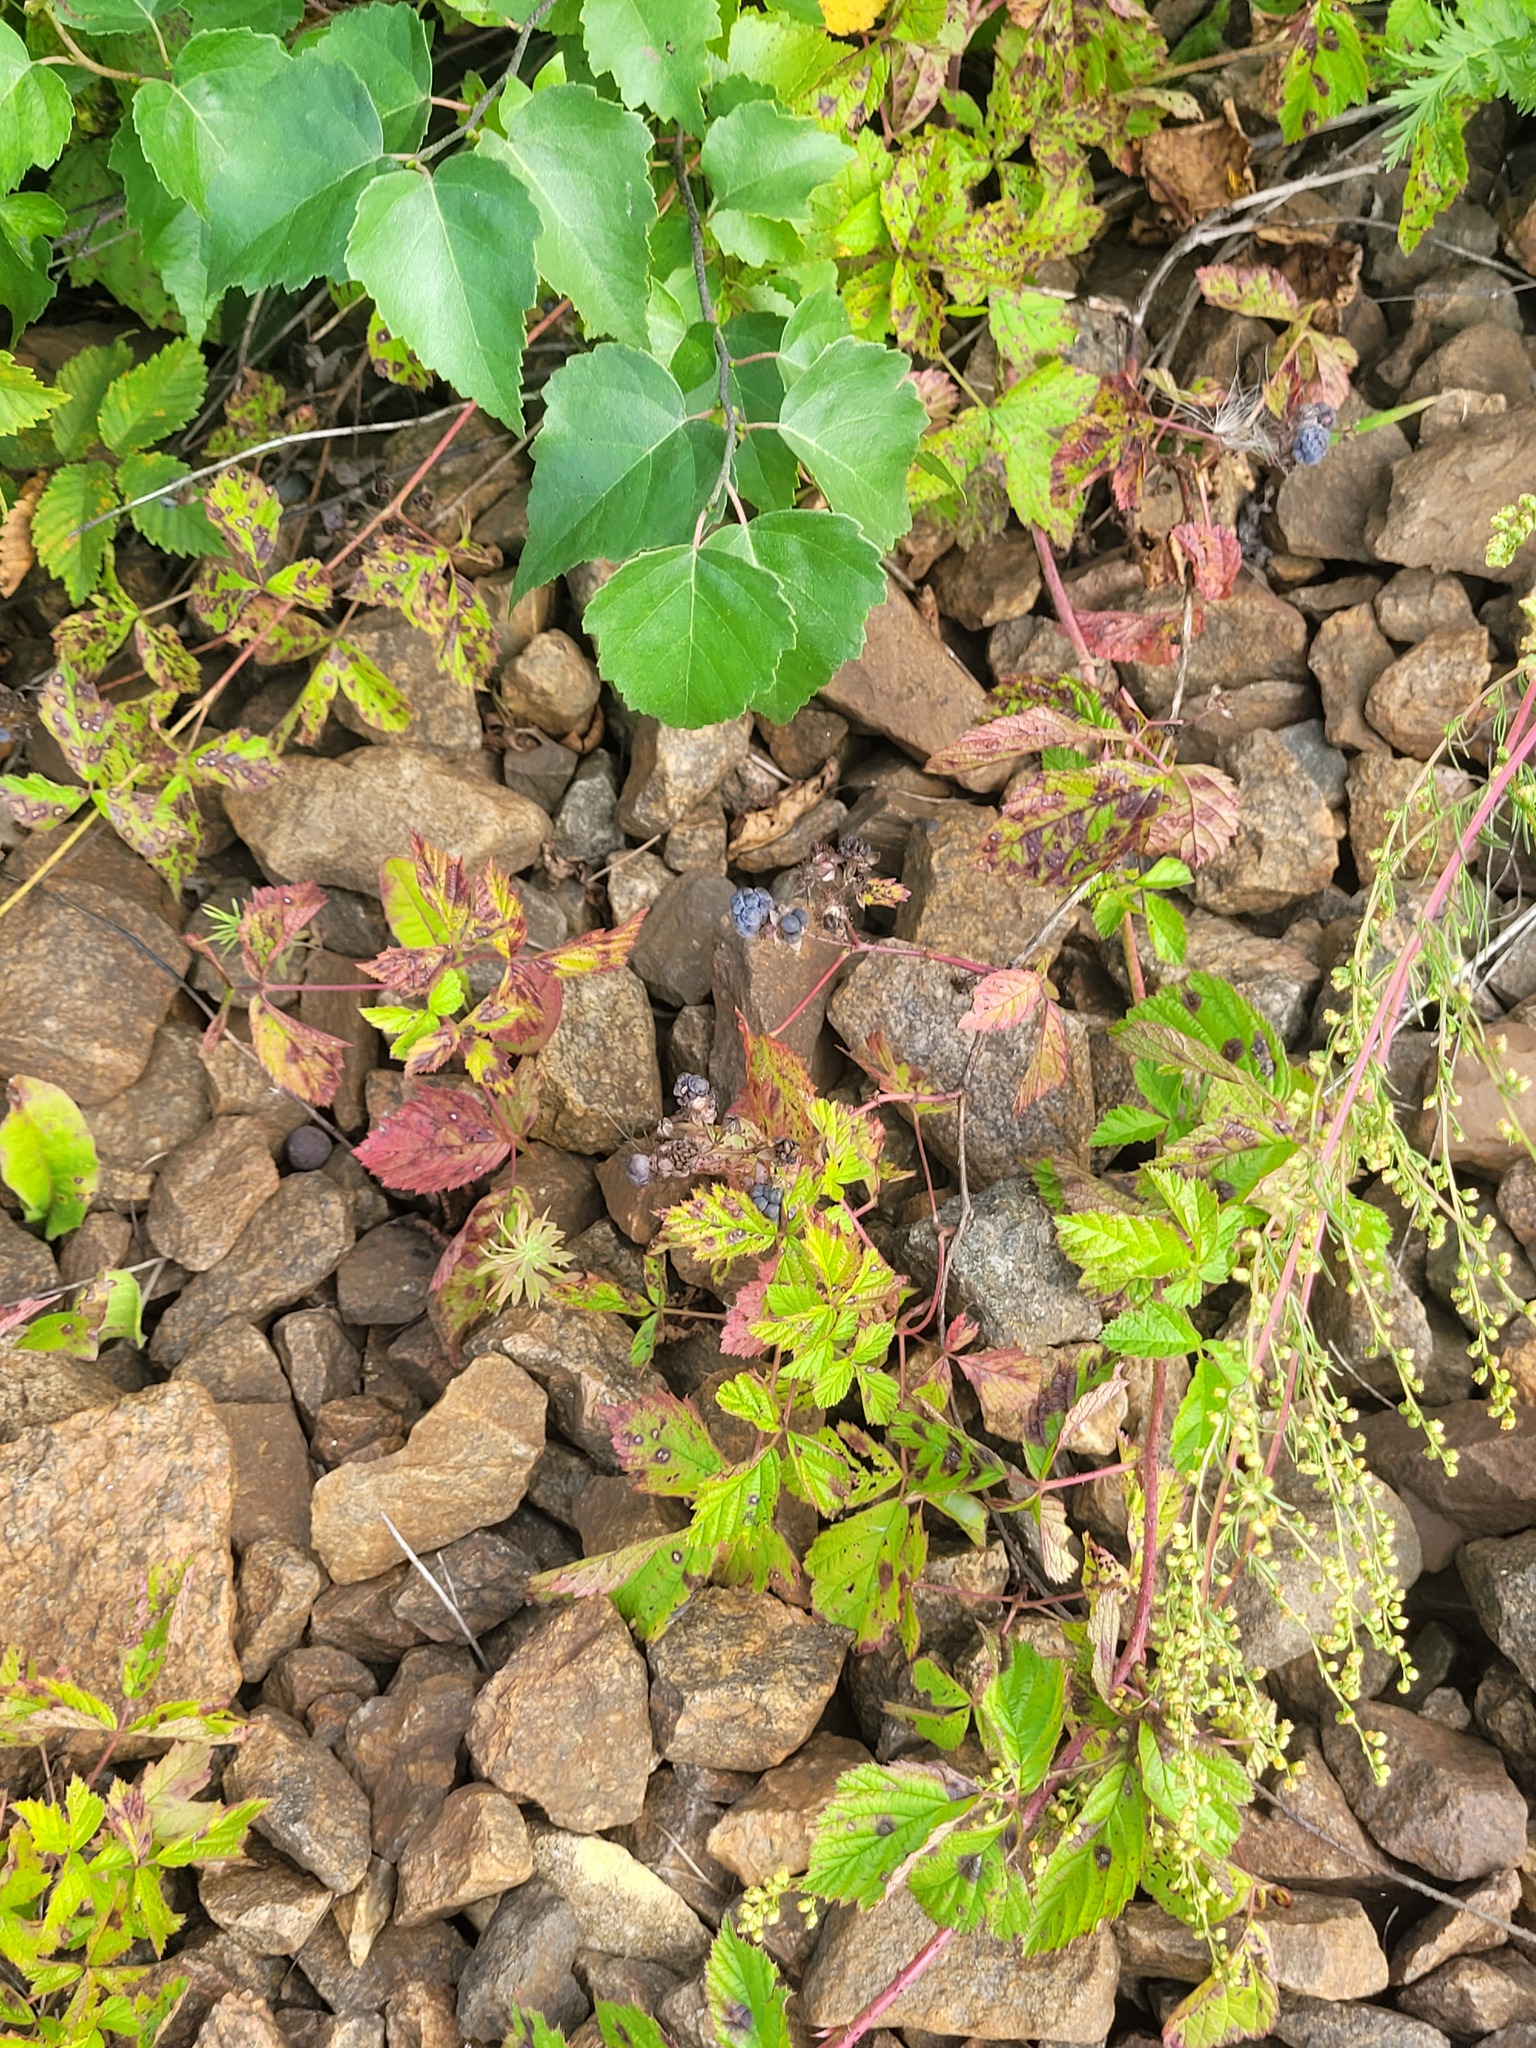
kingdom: Plantae
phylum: Tracheophyta
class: Magnoliopsida
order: Rosales
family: Rosaceae
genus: Rubus
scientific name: Rubus caesius
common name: Dewberry
